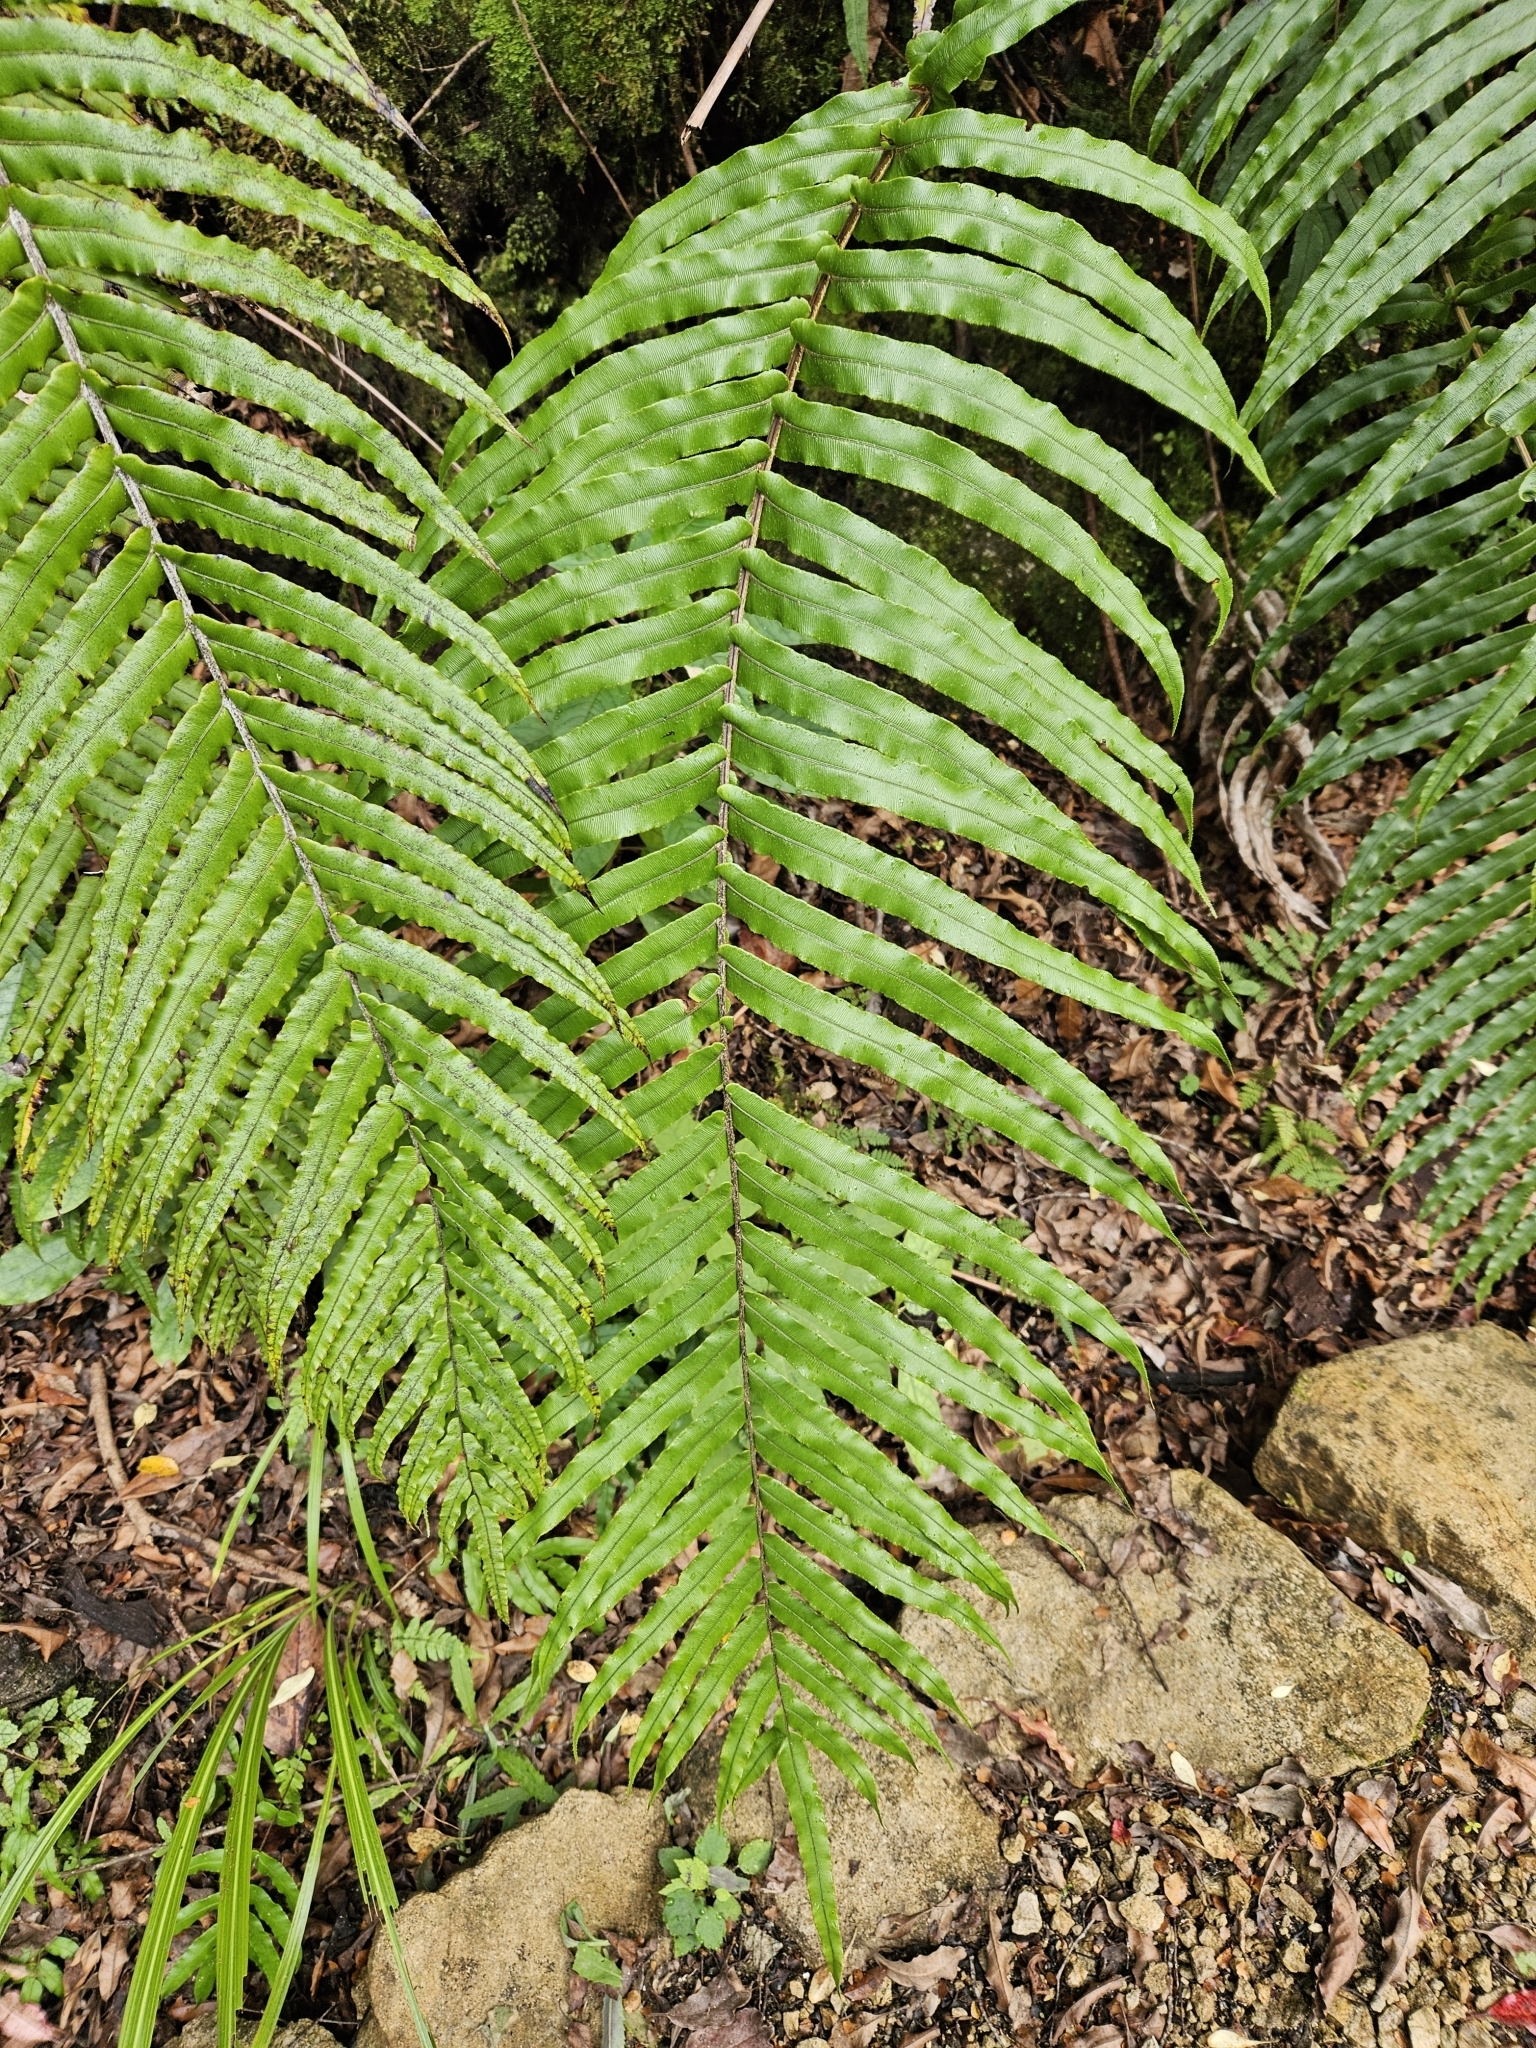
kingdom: Plantae
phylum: Tracheophyta
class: Polypodiopsida
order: Polypodiales
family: Blechnaceae
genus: Parablechnum
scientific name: Parablechnum novae-zelandiae
